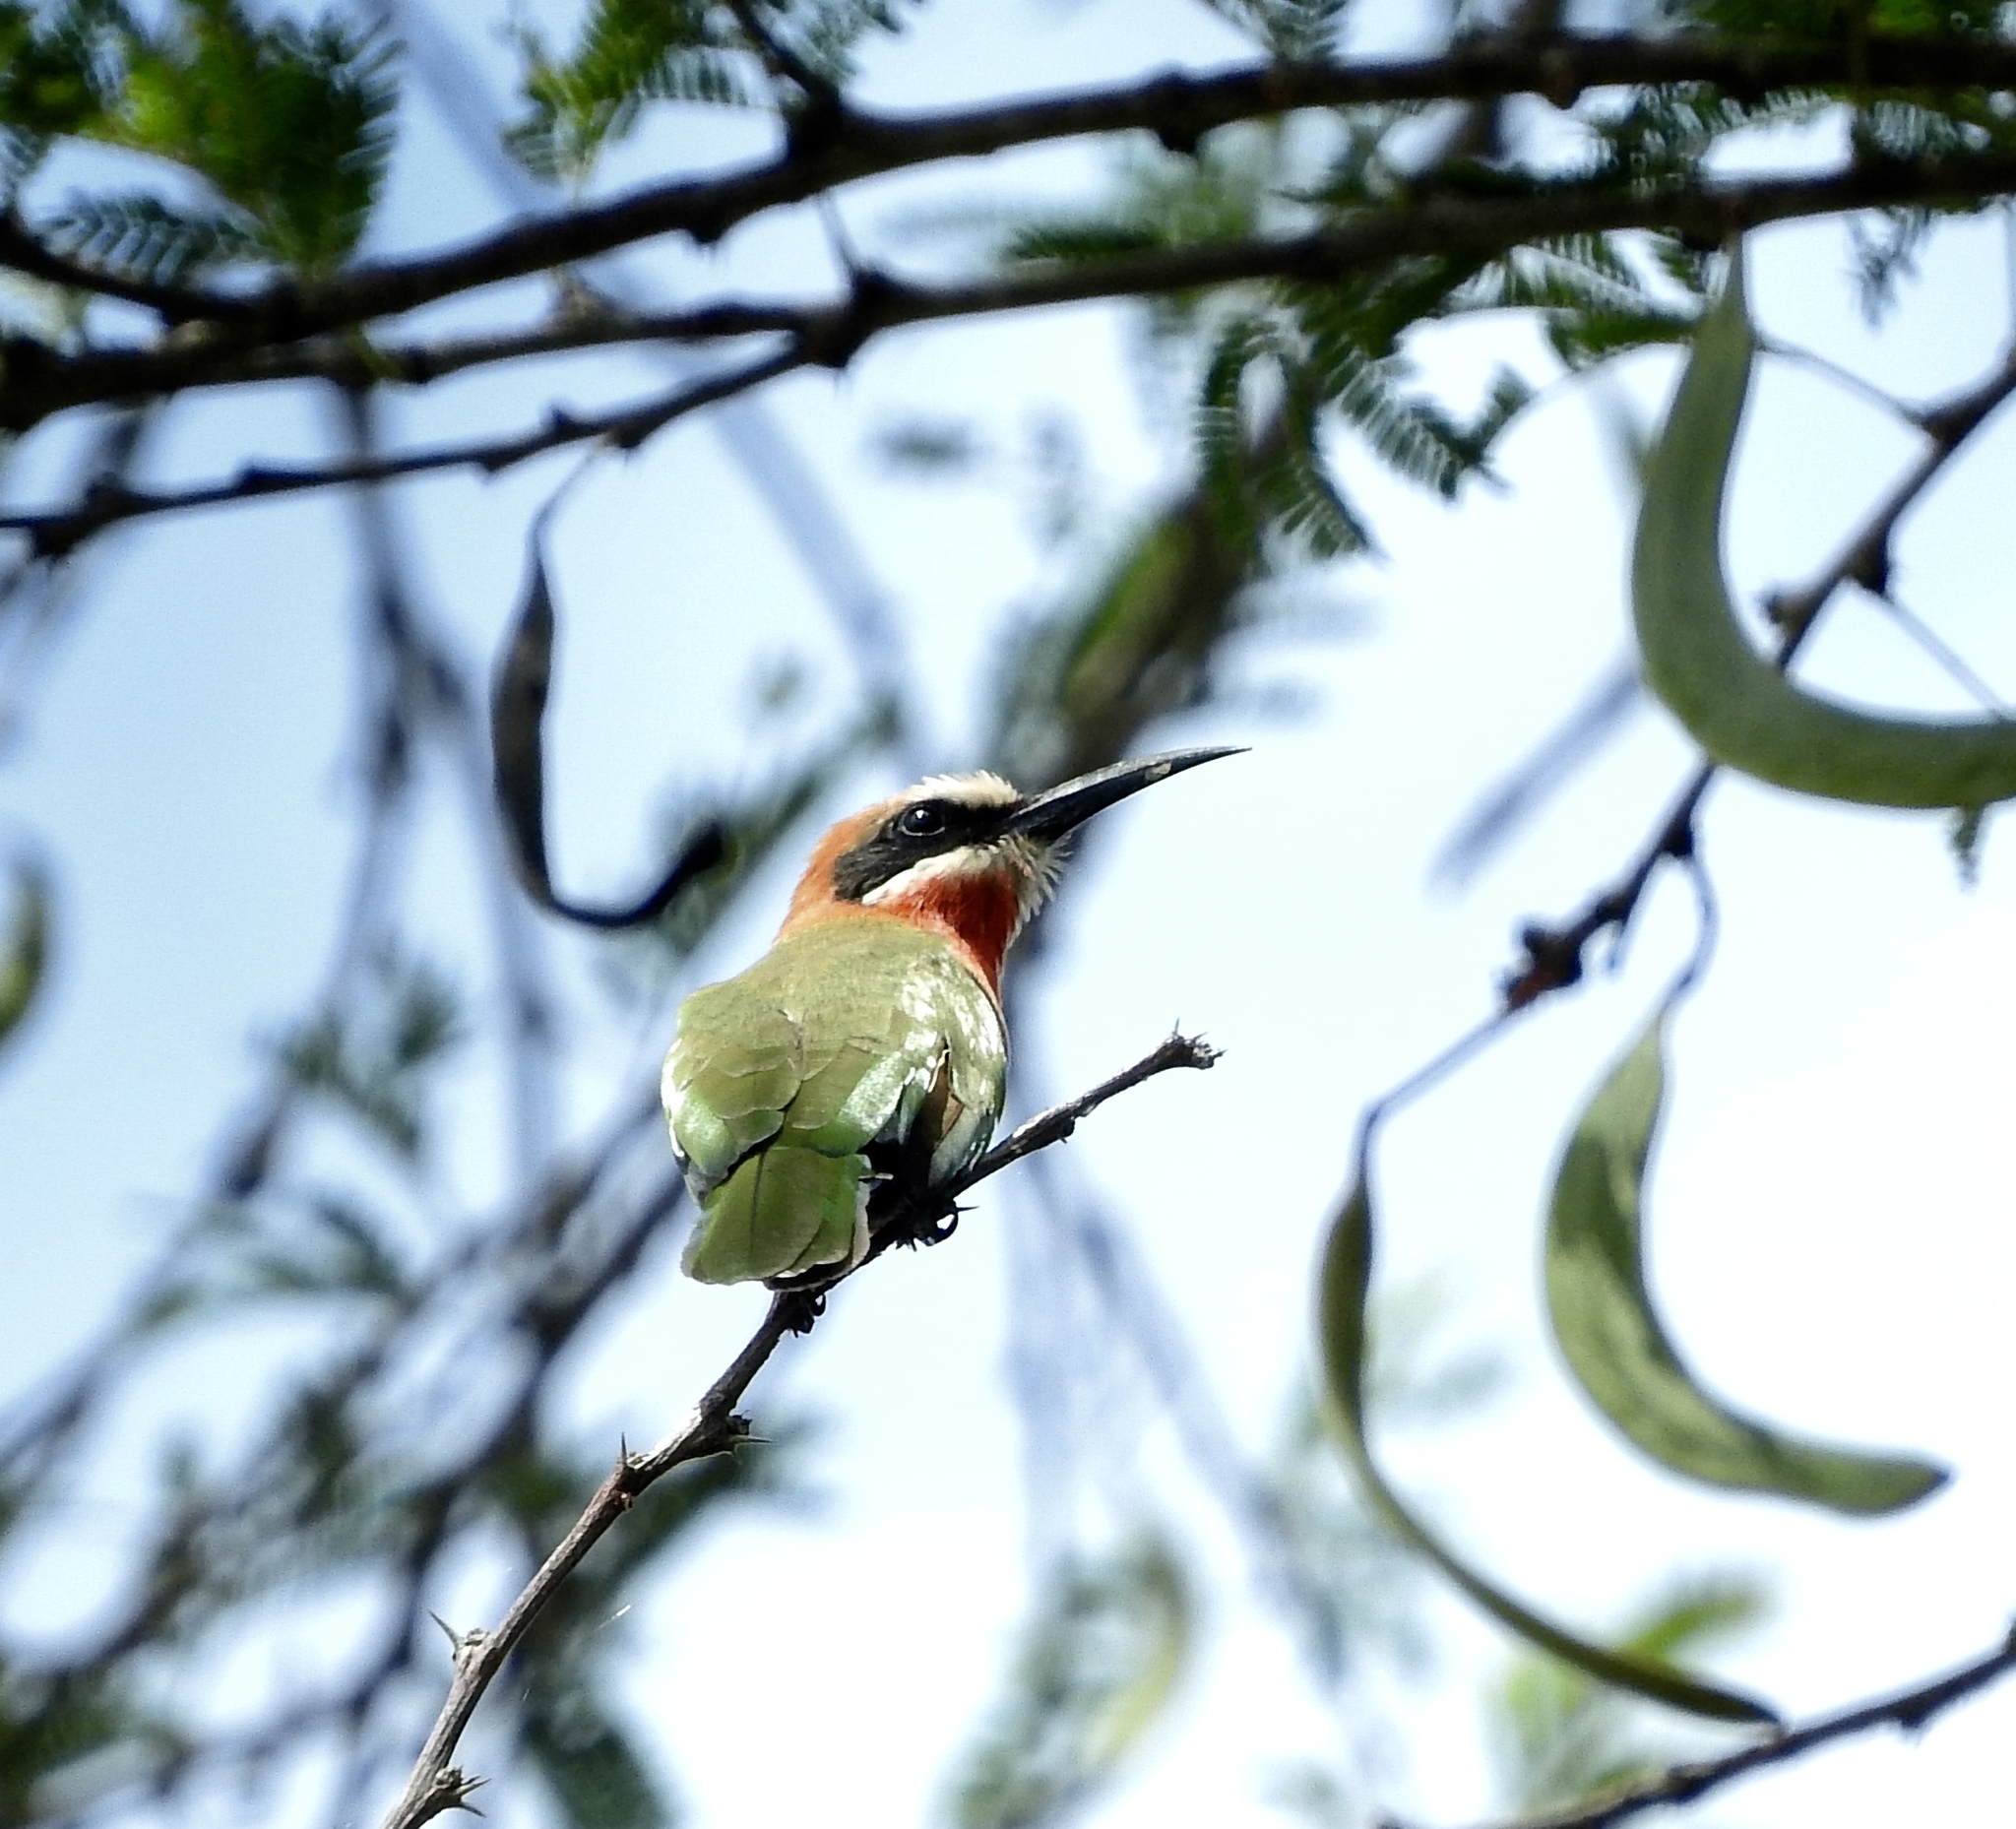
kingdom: Animalia
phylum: Chordata
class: Aves
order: Coraciiformes
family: Meropidae
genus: Merops
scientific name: Merops bullockoides
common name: White-fronted bee-eater
